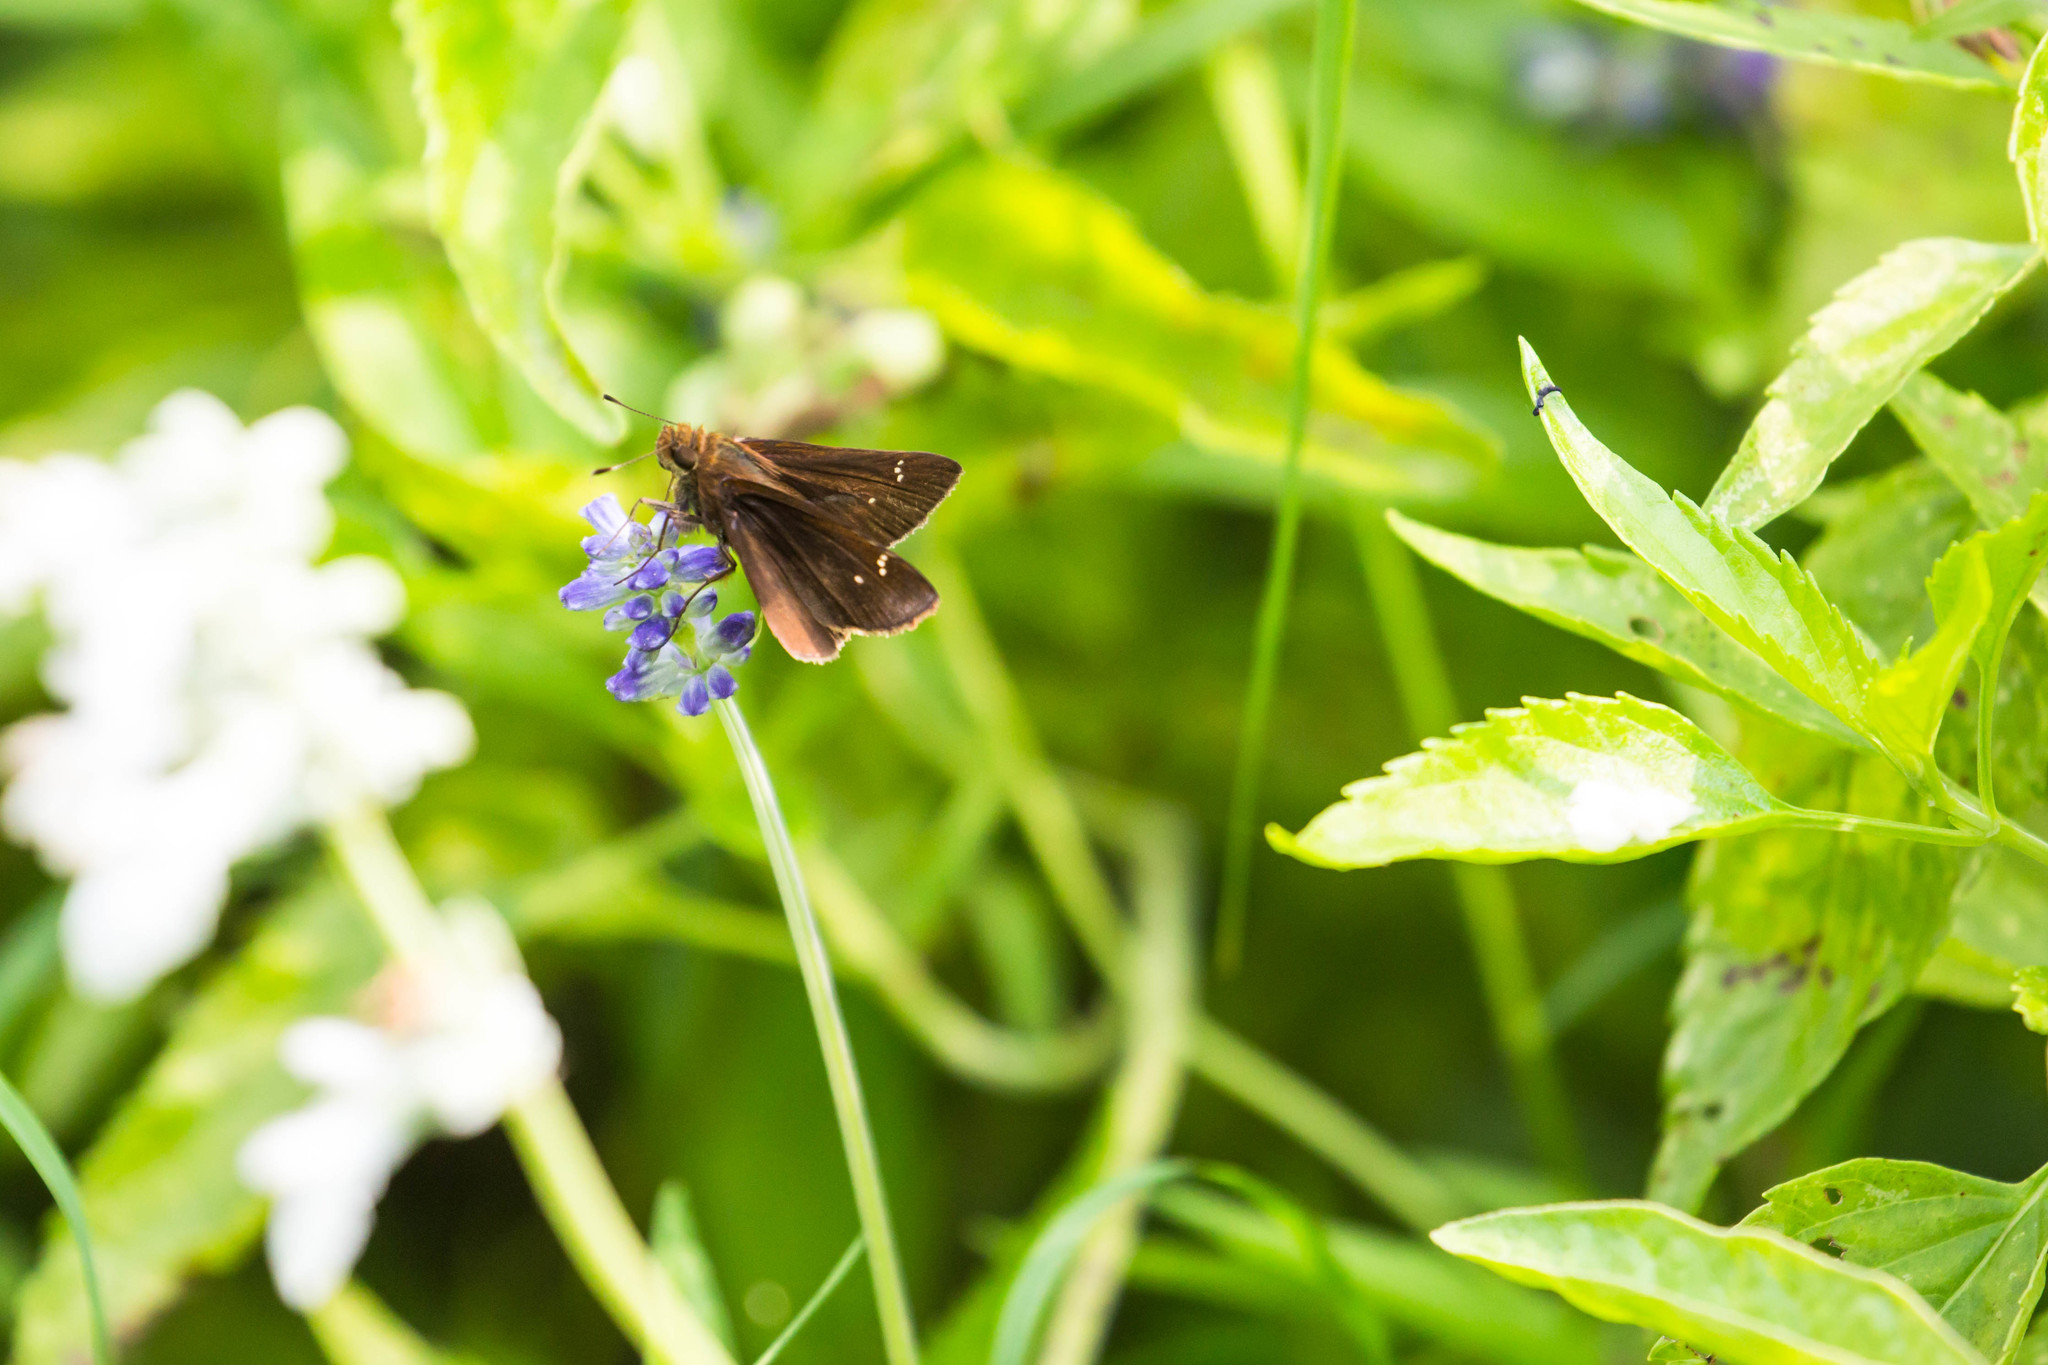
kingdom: Animalia
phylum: Arthropoda
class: Insecta
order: Lepidoptera
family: Hesperiidae
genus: Lerema
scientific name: Lerema accius
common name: Clouded skipper
